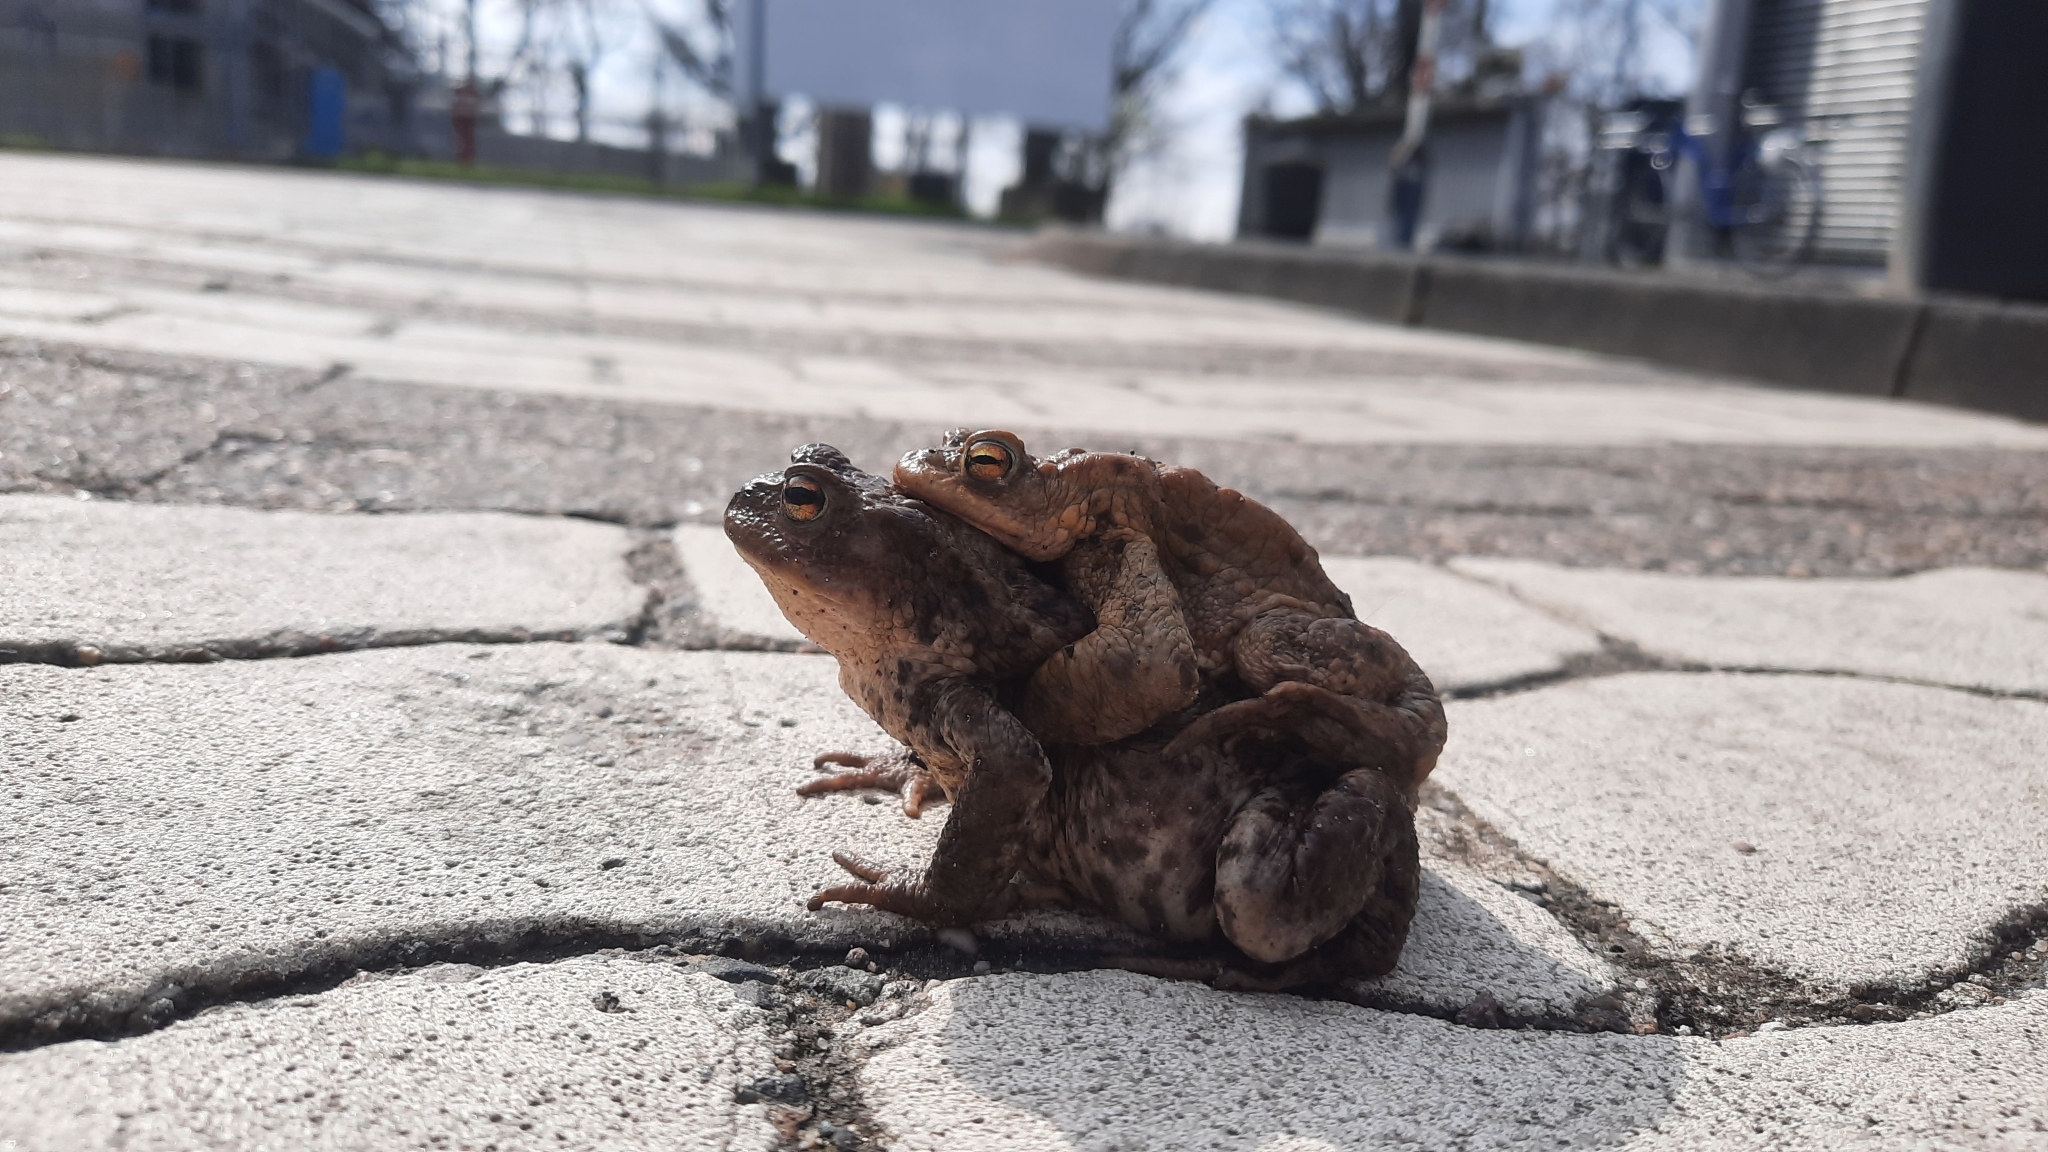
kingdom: Animalia
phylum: Chordata
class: Amphibia
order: Anura
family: Bufonidae
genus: Bufo
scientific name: Bufo bufo
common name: Common toad
